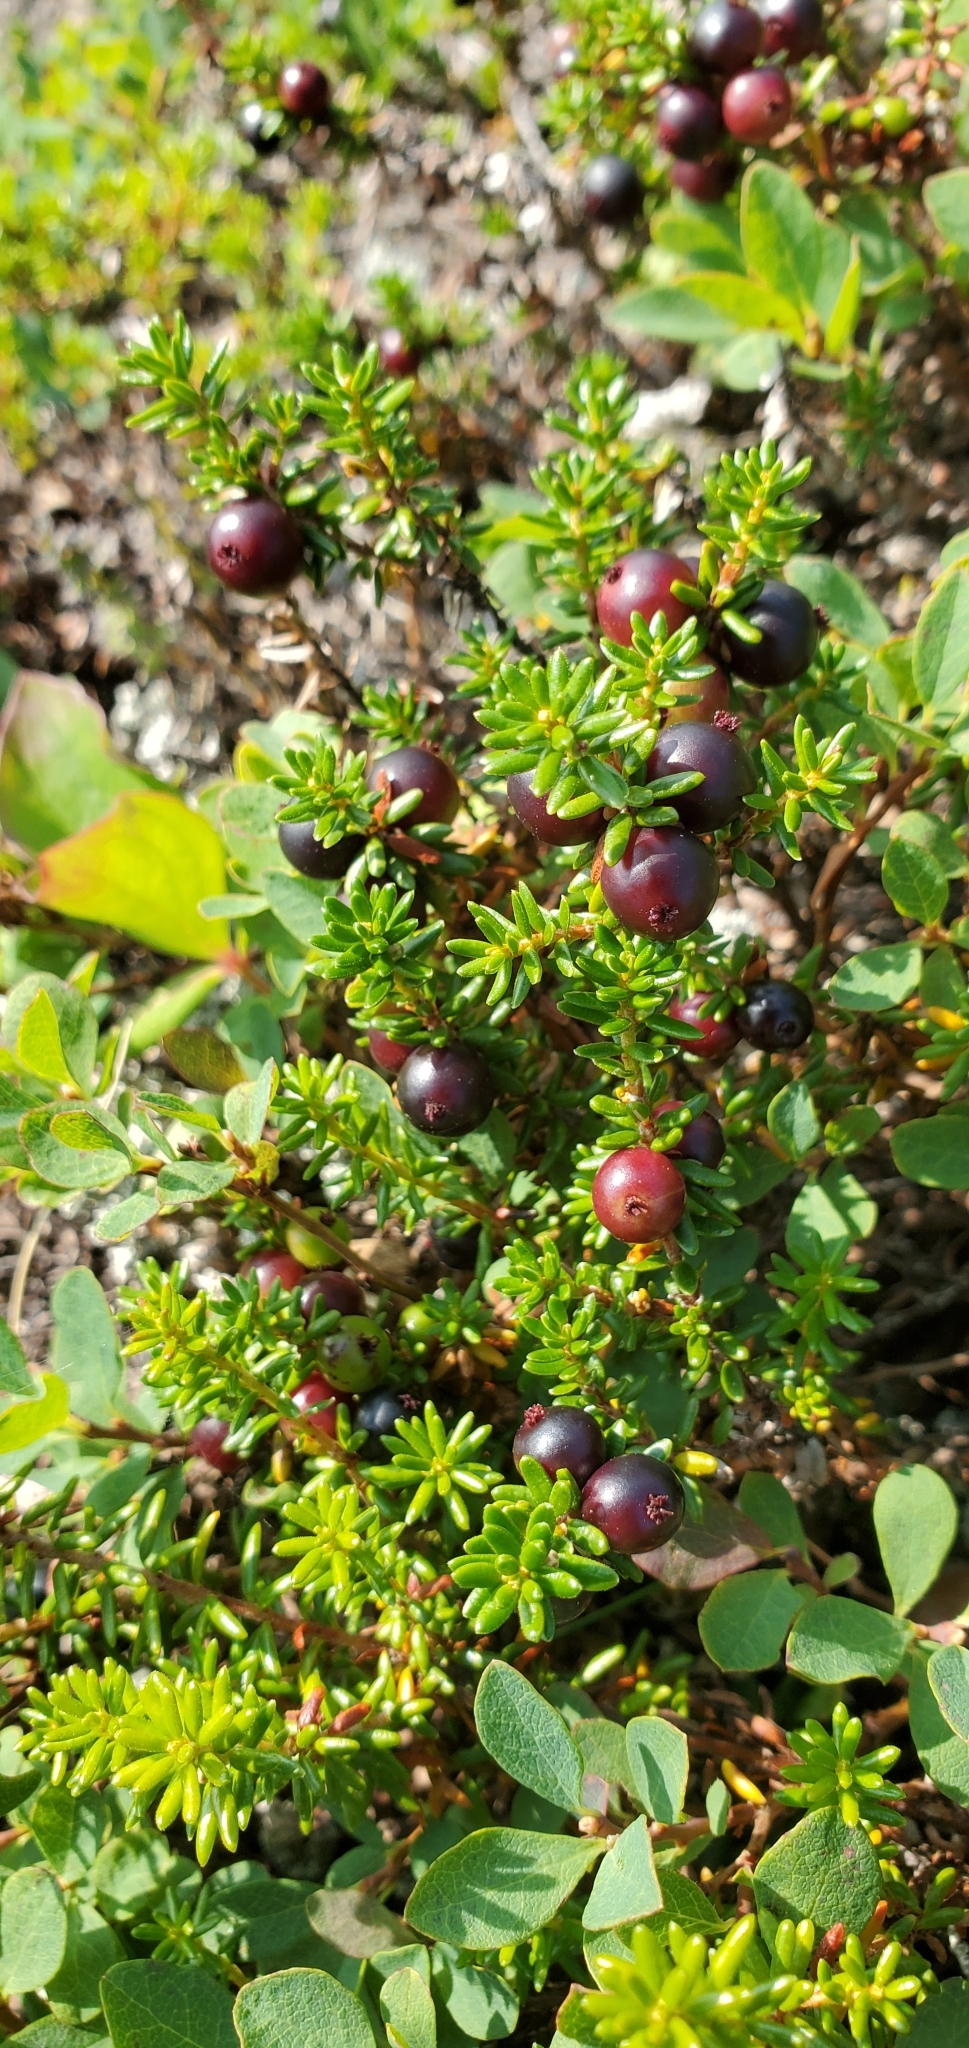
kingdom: Plantae
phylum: Tracheophyta
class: Magnoliopsida
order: Ericales
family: Ericaceae
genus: Empetrum
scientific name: Empetrum nigrum
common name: Black crowberry
